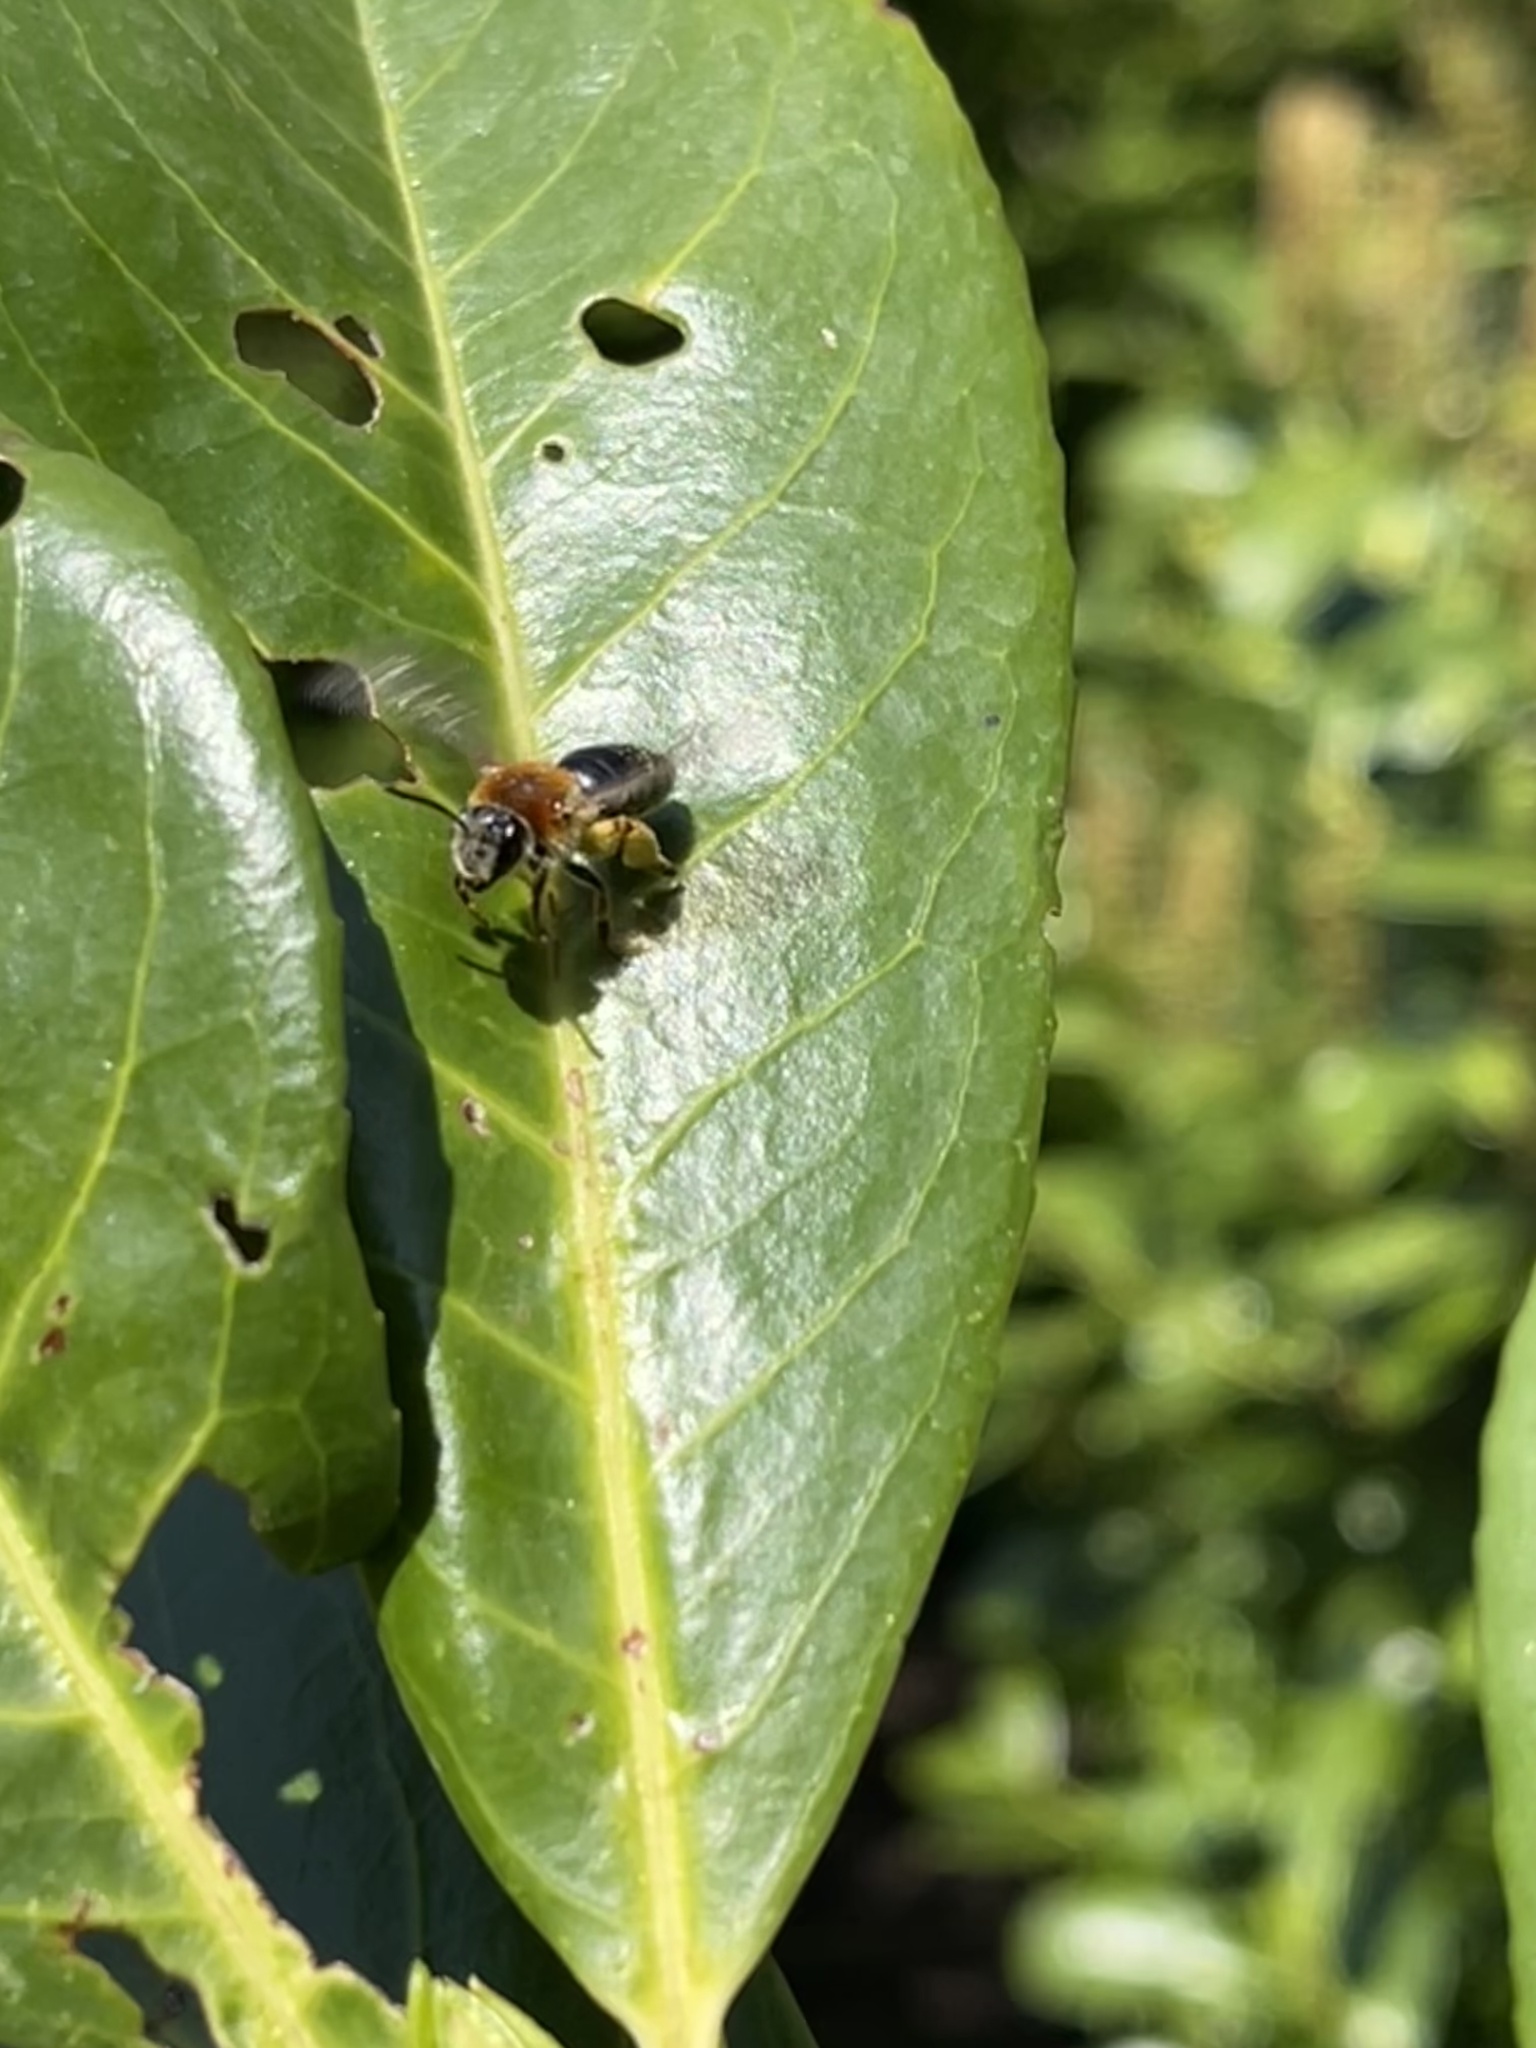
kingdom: Animalia
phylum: Arthropoda
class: Insecta
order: Hymenoptera
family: Andrenidae
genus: Andrena
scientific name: Andrena haemorrhoa
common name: Early mining bee
